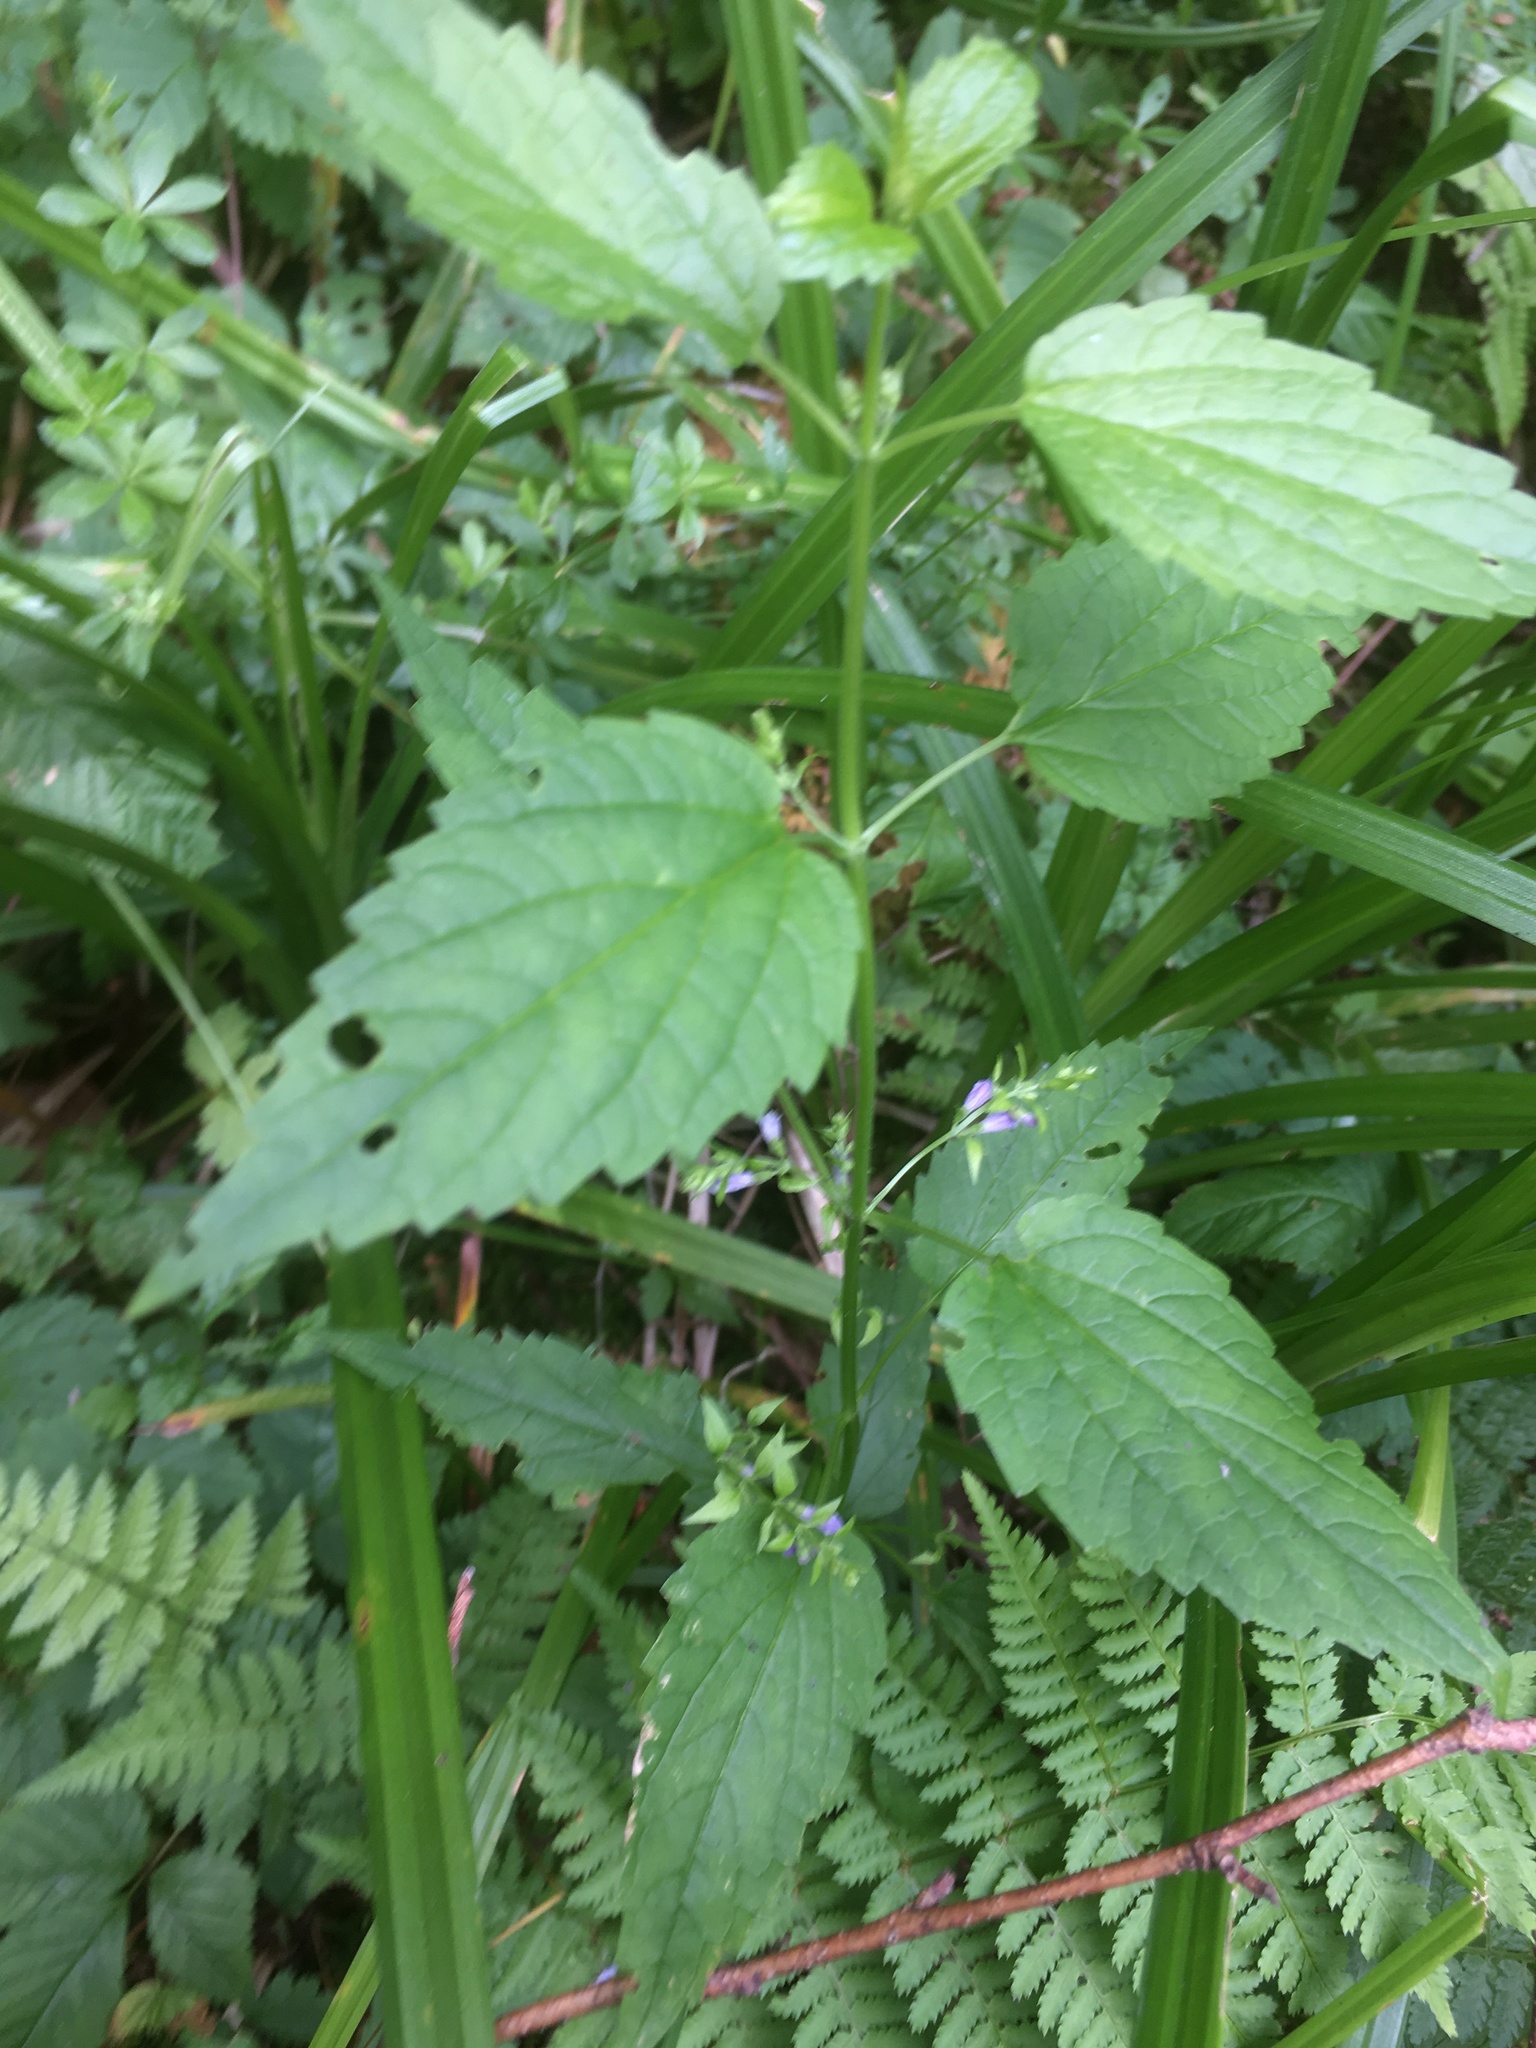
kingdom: Plantae
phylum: Tracheophyta
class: Magnoliopsida
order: Lamiales
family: Lamiaceae
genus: Scutellaria
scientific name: Scutellaria lateriflora
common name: Blue skullcap
